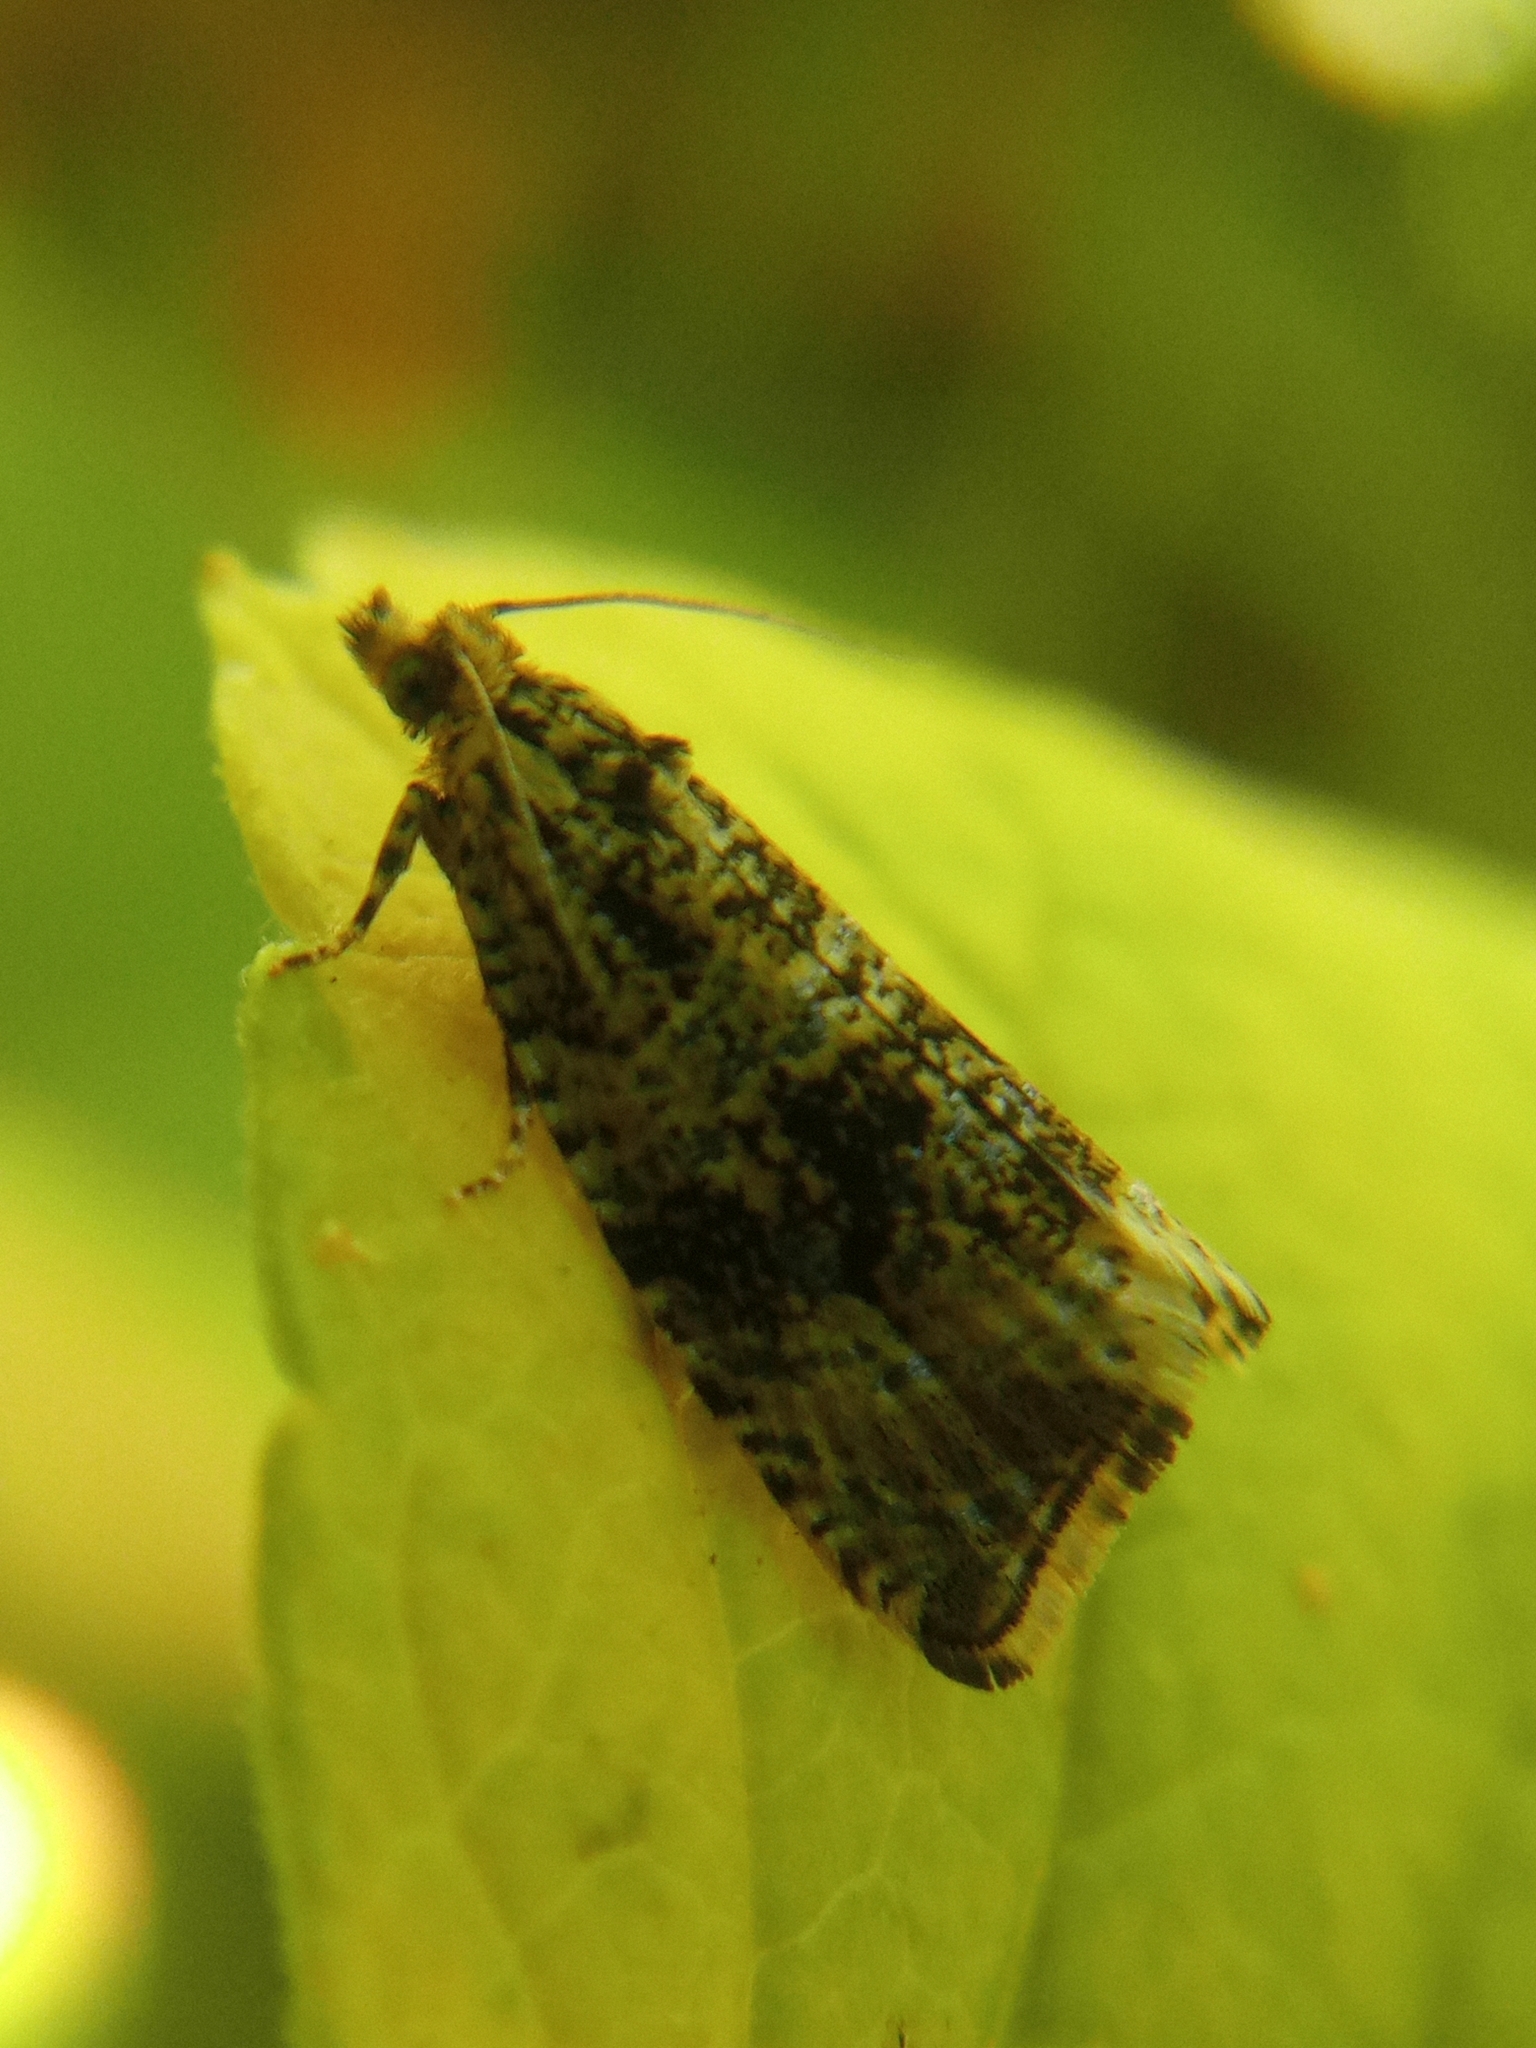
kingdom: Animalia
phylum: Arthropoda
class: Insecta
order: Lepidoptera
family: Tortricidae
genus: Syricoris
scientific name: Syricoris lacunana
